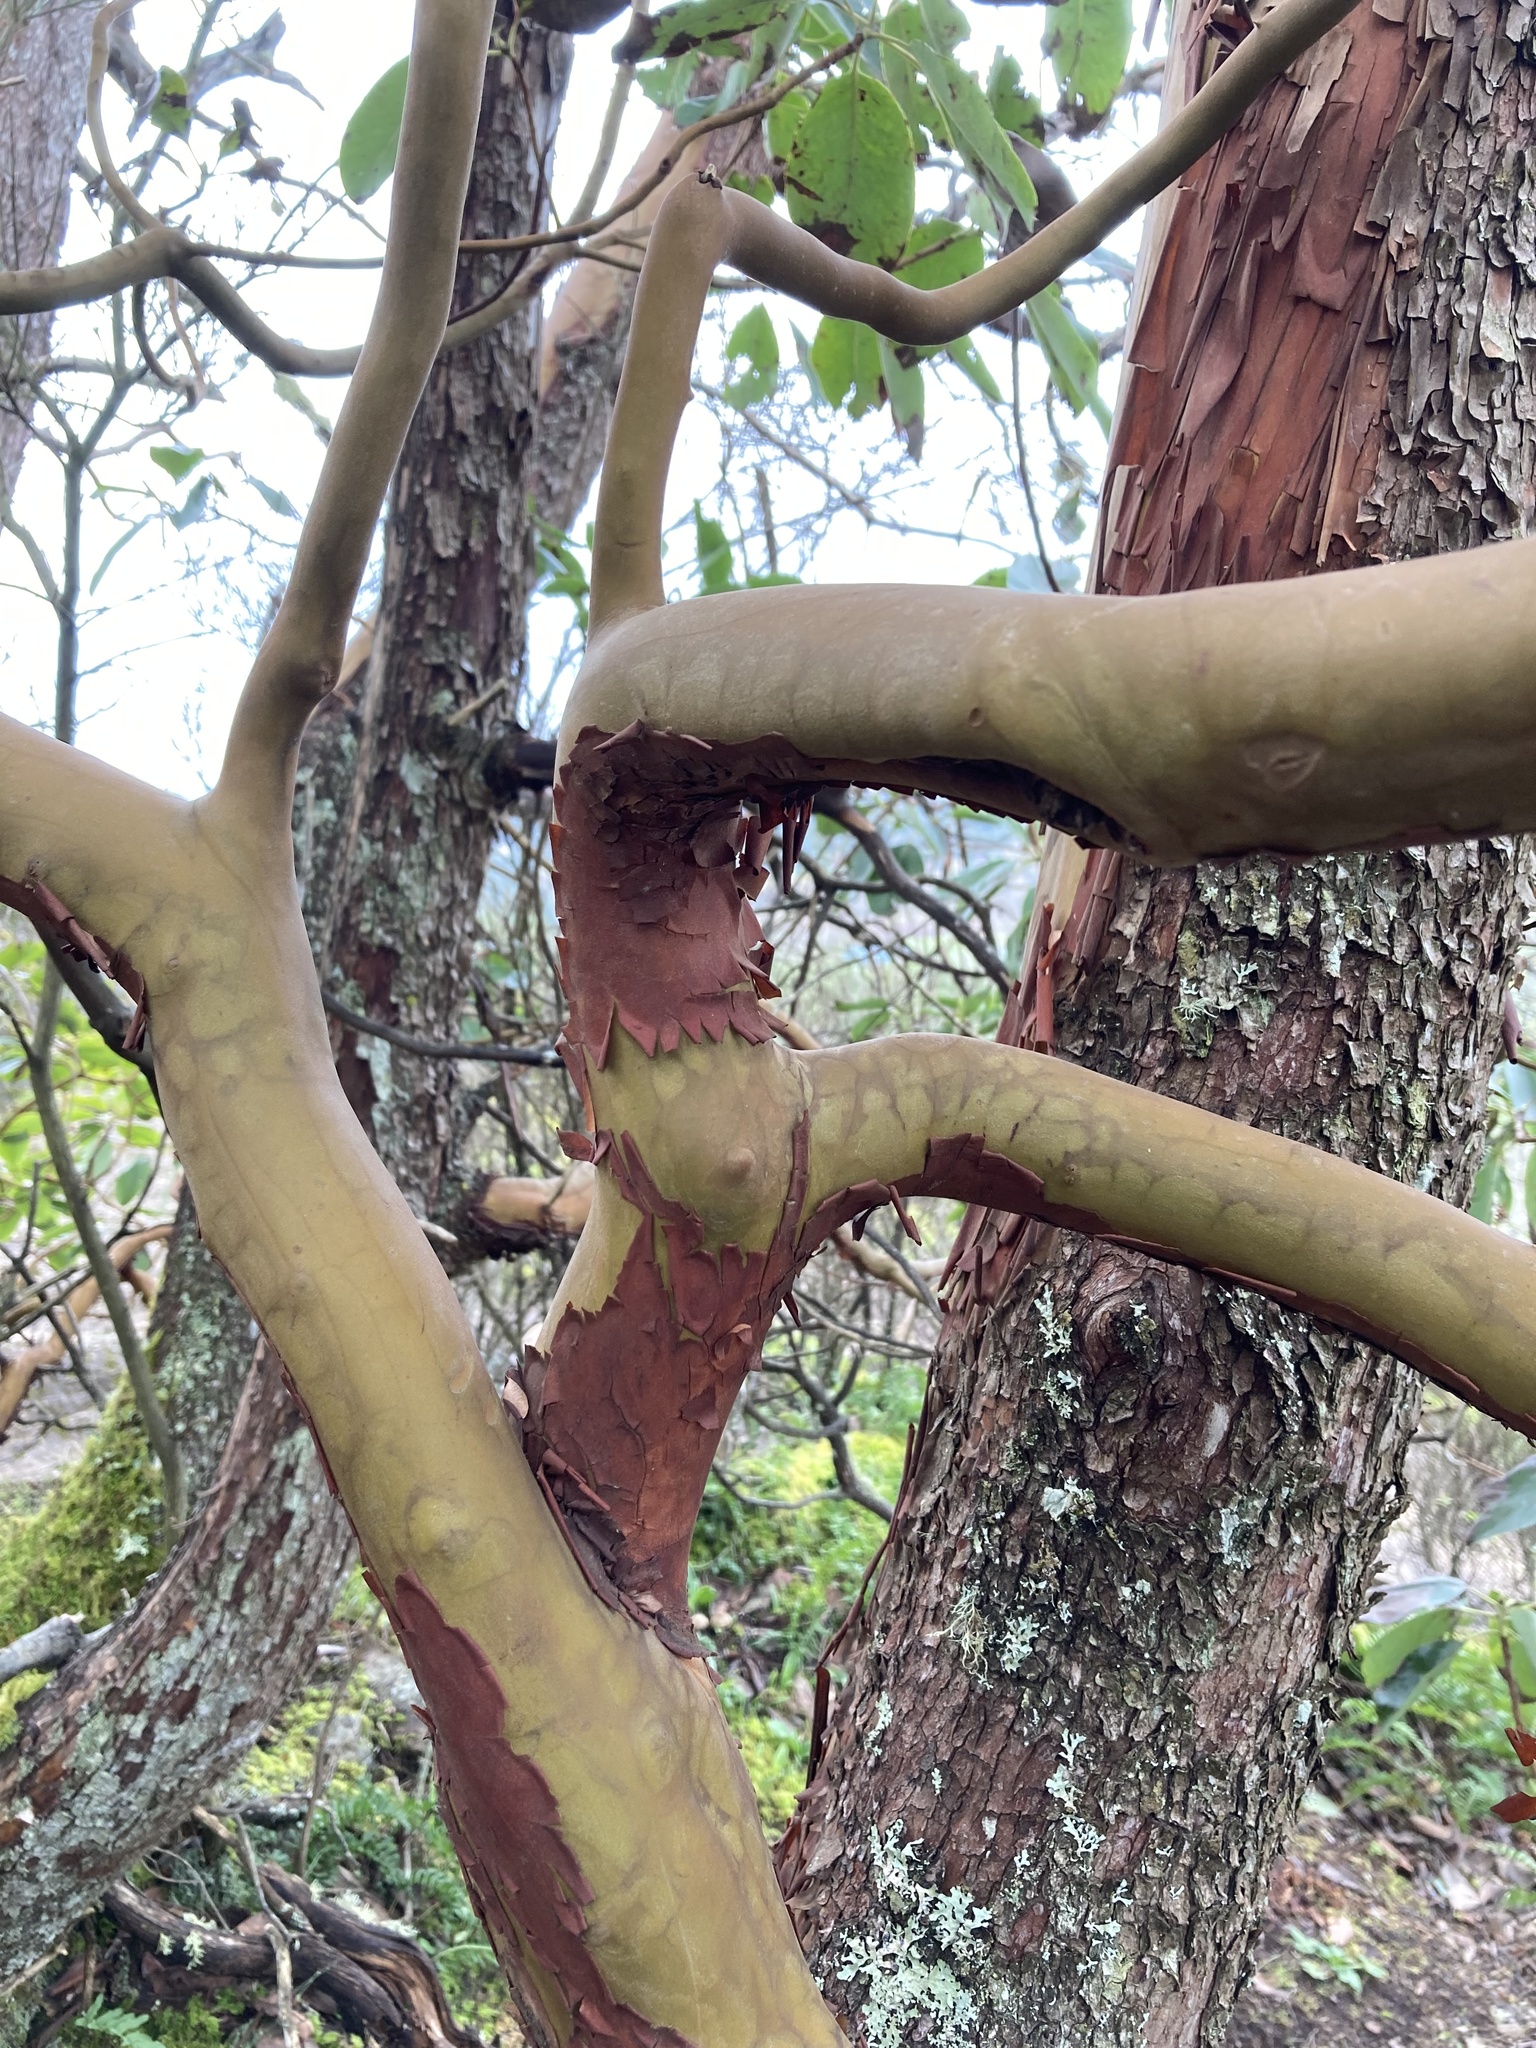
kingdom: Plantae
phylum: Tracheophyta
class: Magnoliopsida
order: Ericales
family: Ericaceae
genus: Arbutus
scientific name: Arbutus menziesii
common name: Pacific madrone
